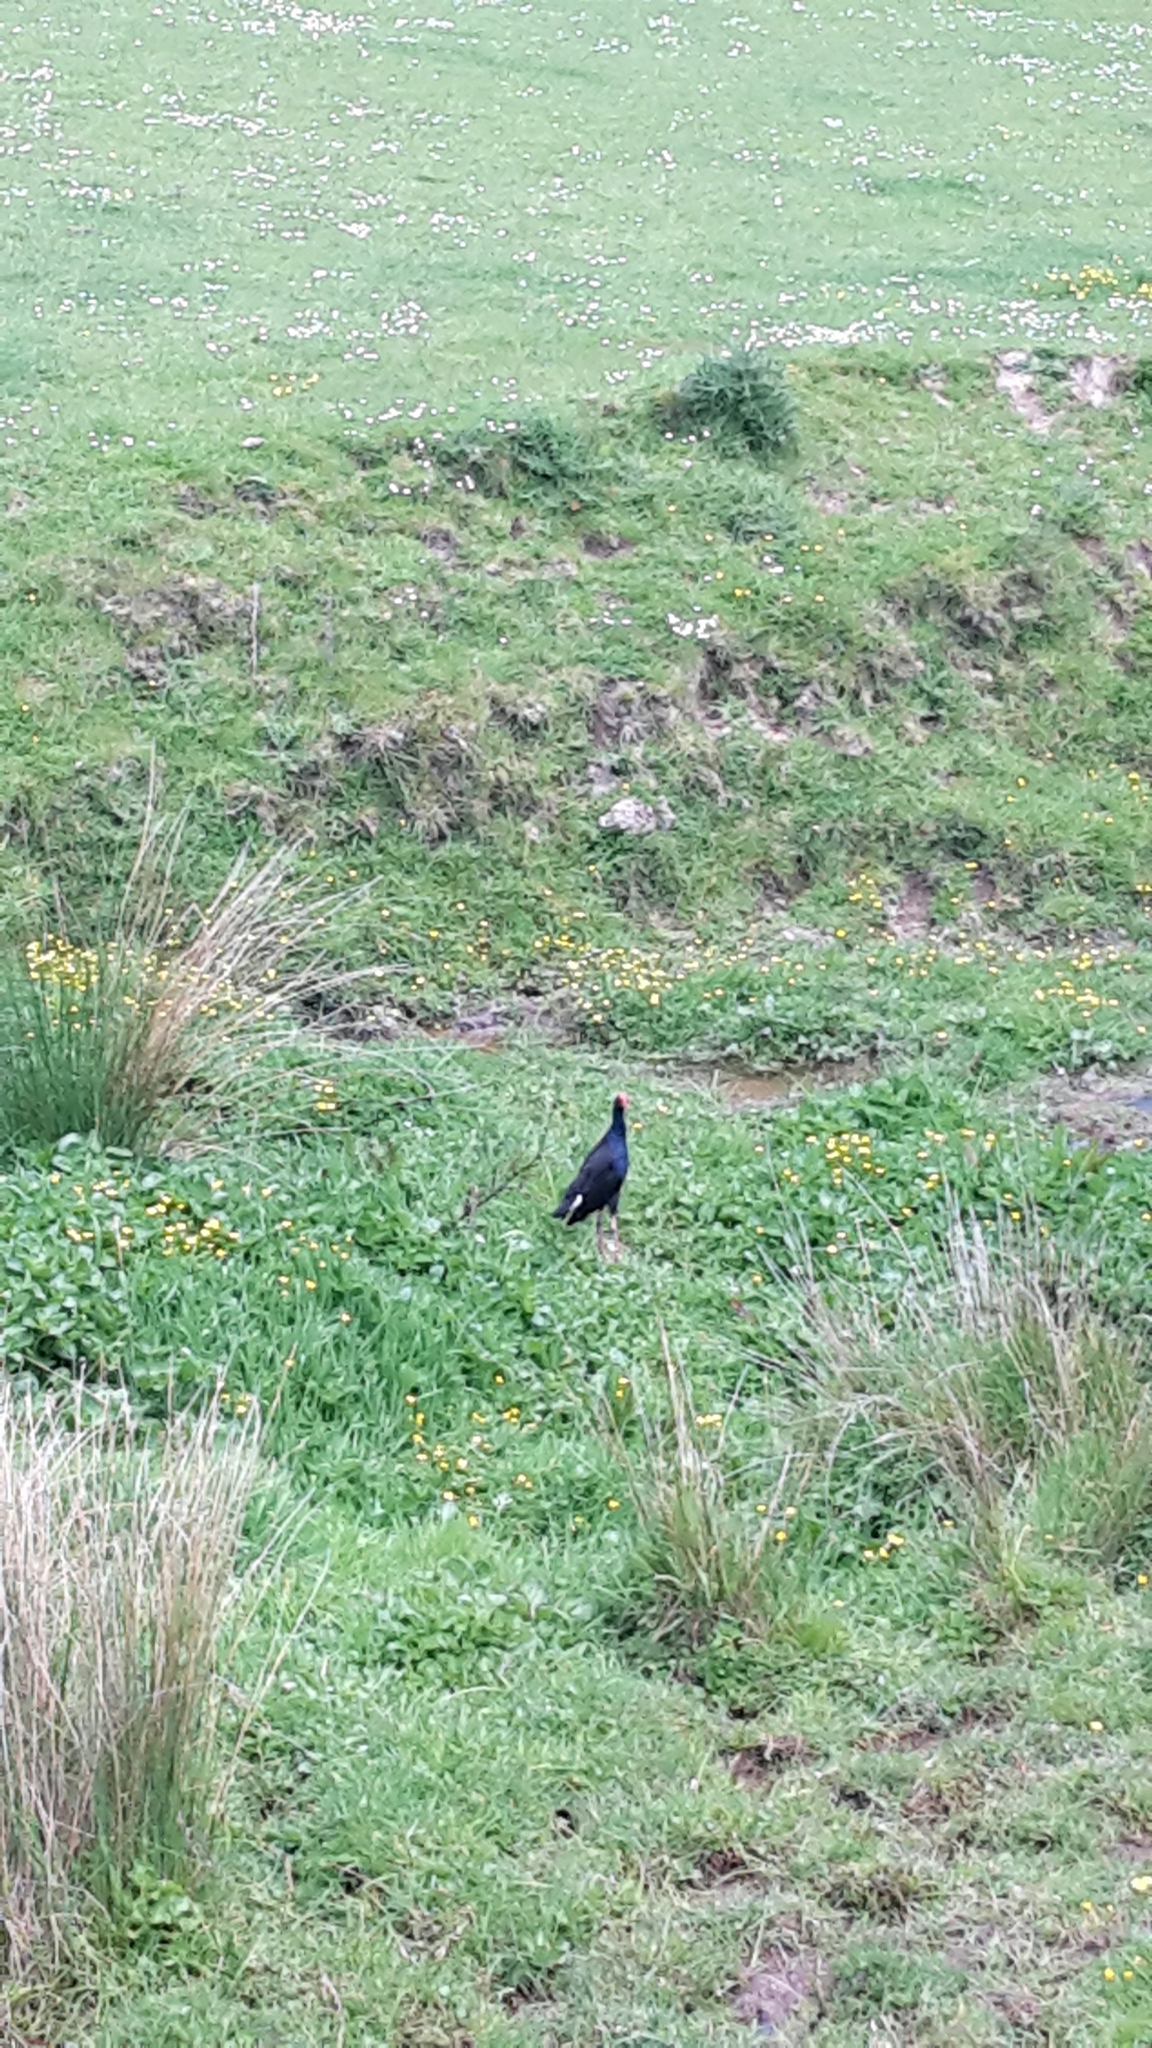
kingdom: Animalia
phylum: Chordata
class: Aves
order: Gruiformes
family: Rallidae
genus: Porphyrio
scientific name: Porphyrio melanotus
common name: Australasian swamphen
